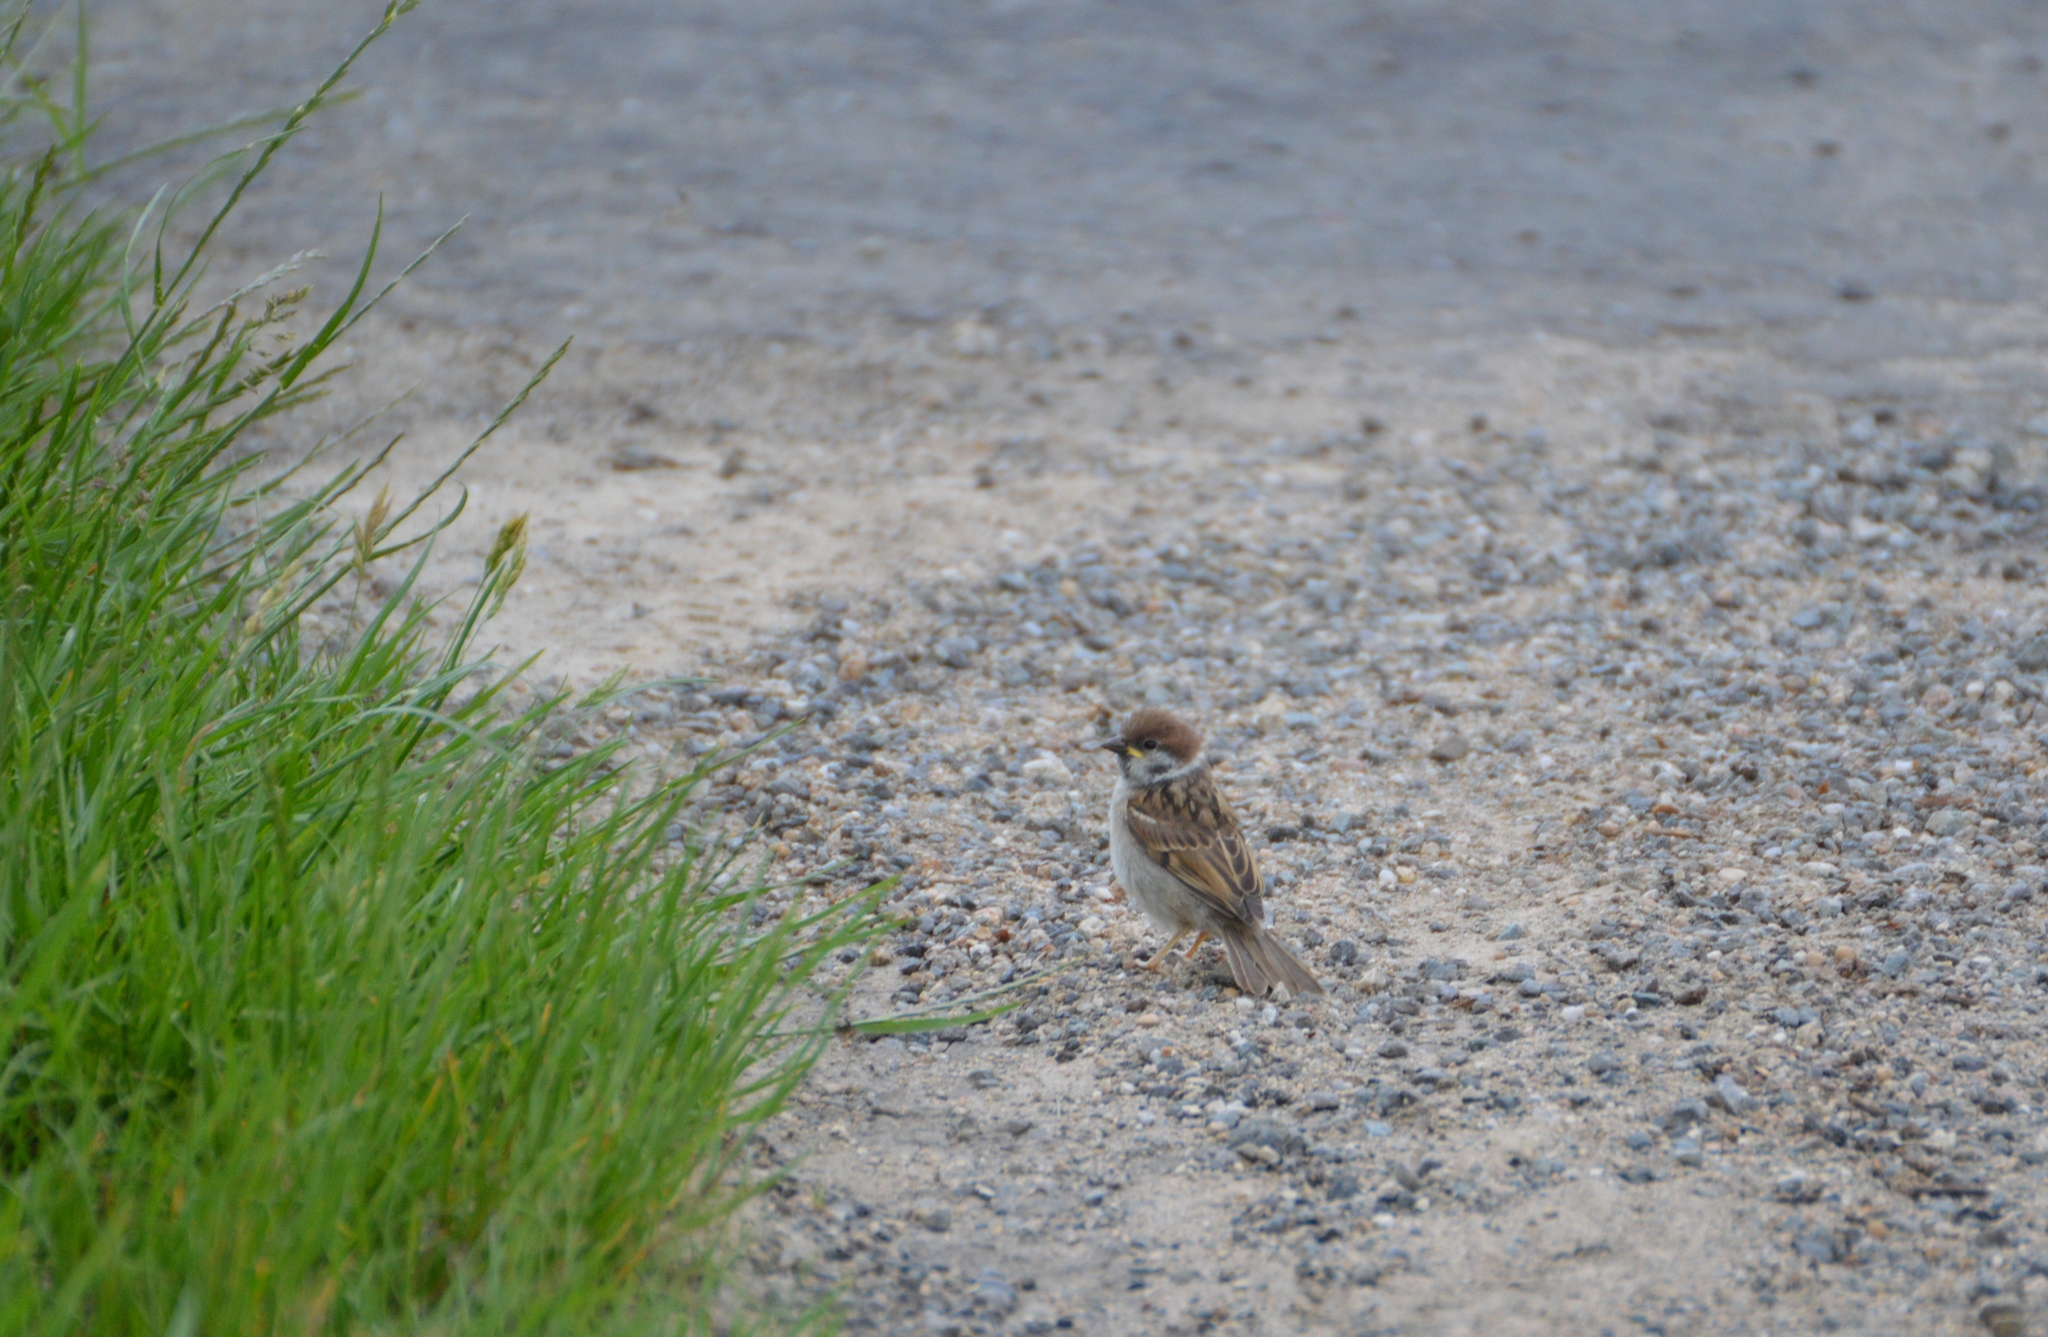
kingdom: Animalia
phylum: Chordata
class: Aves
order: Passeriformes
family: Passeridae
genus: Passer
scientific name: Passer montanus
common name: Eurasian tree sparrow
